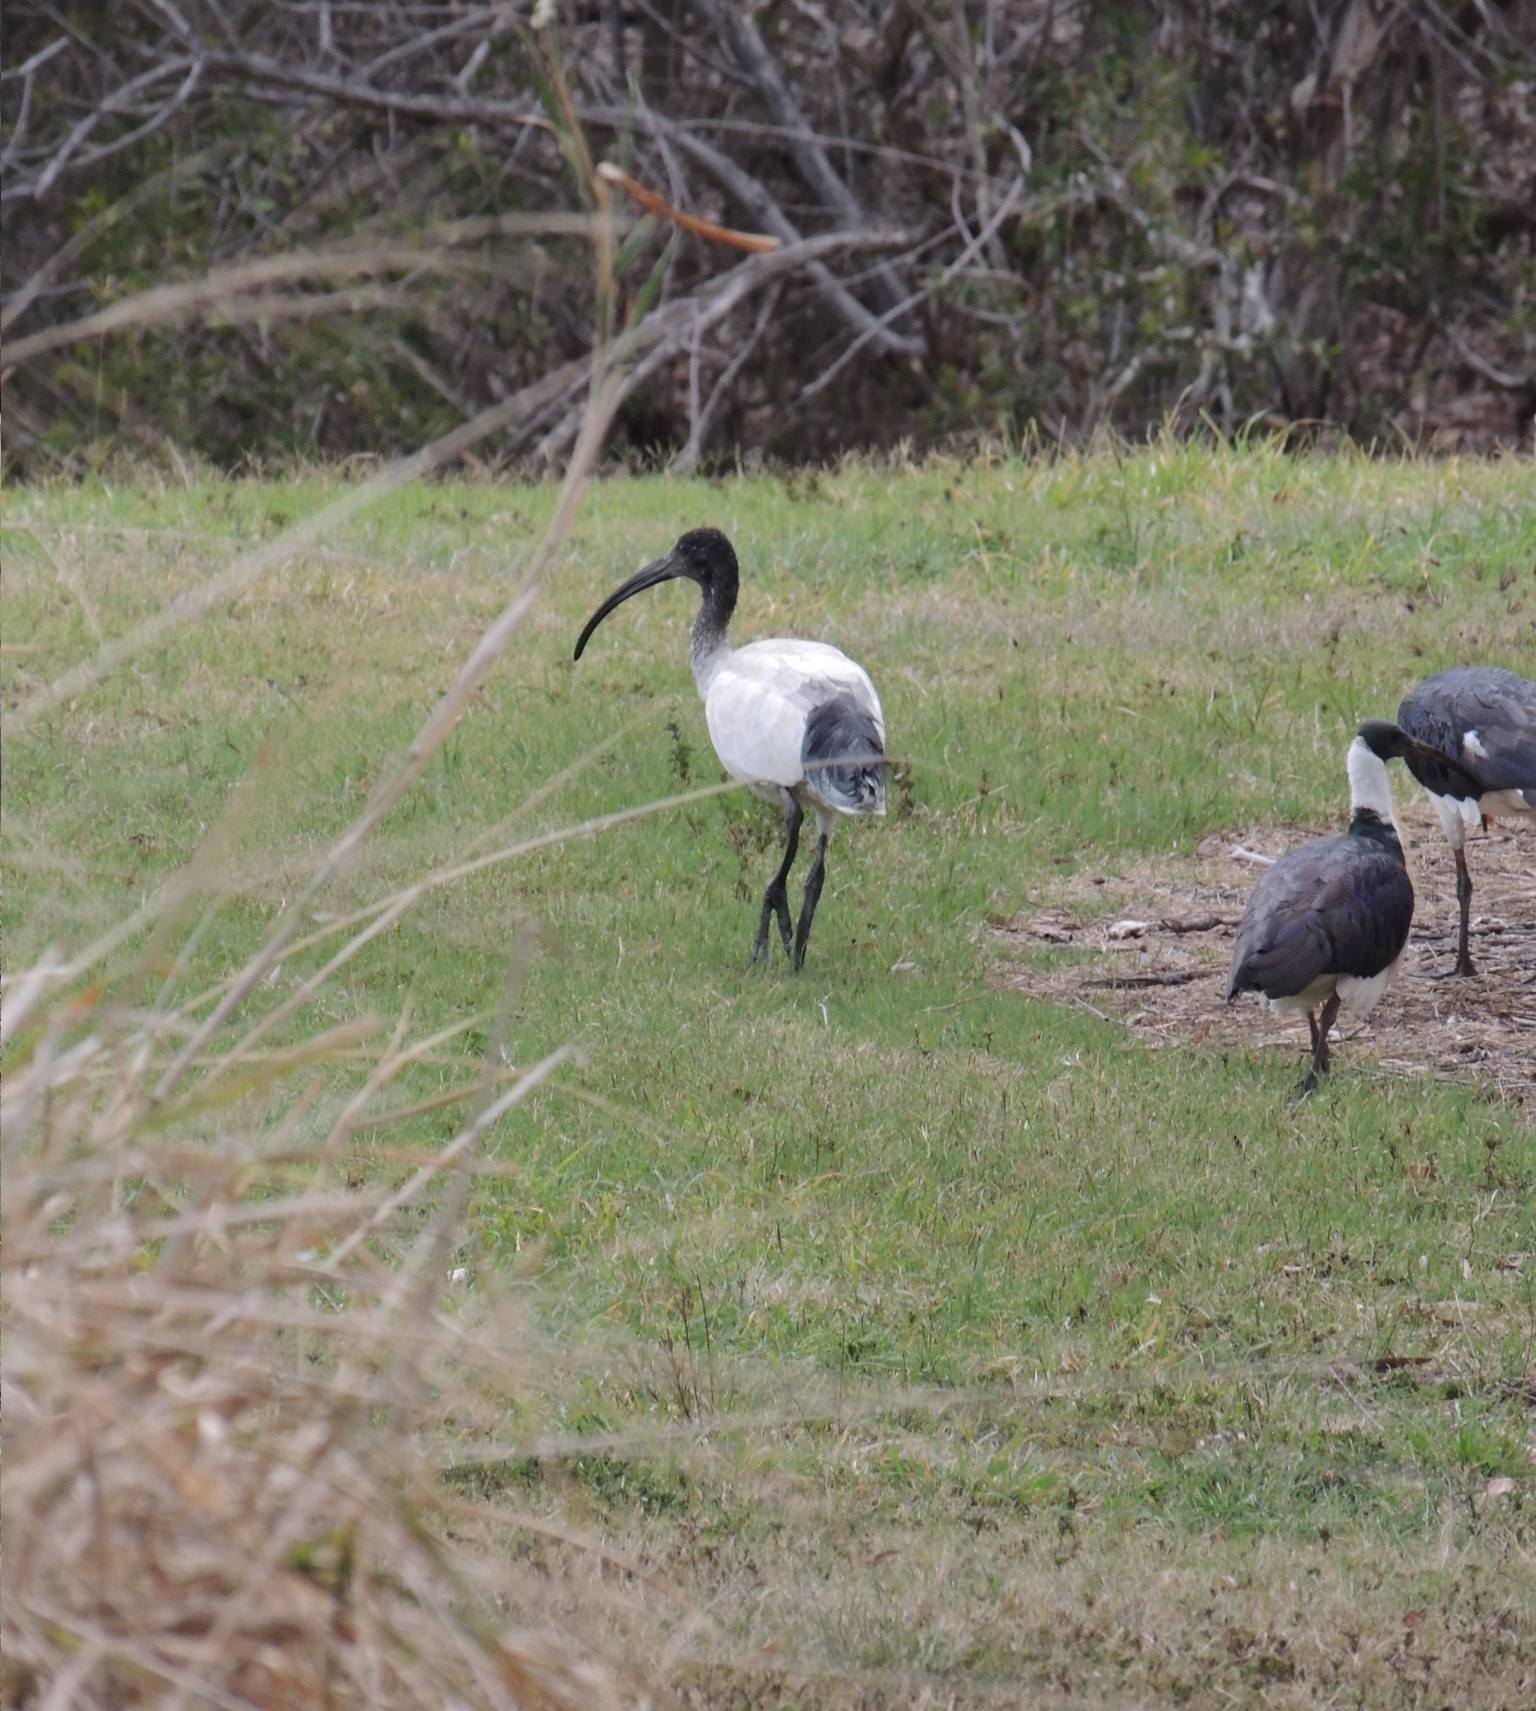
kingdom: Animalia
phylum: Chordata
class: Aves
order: Pelecaniformes
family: Threskiornithidae
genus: Threskiornis
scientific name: Threskiornis molucca
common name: Australian white ibis
